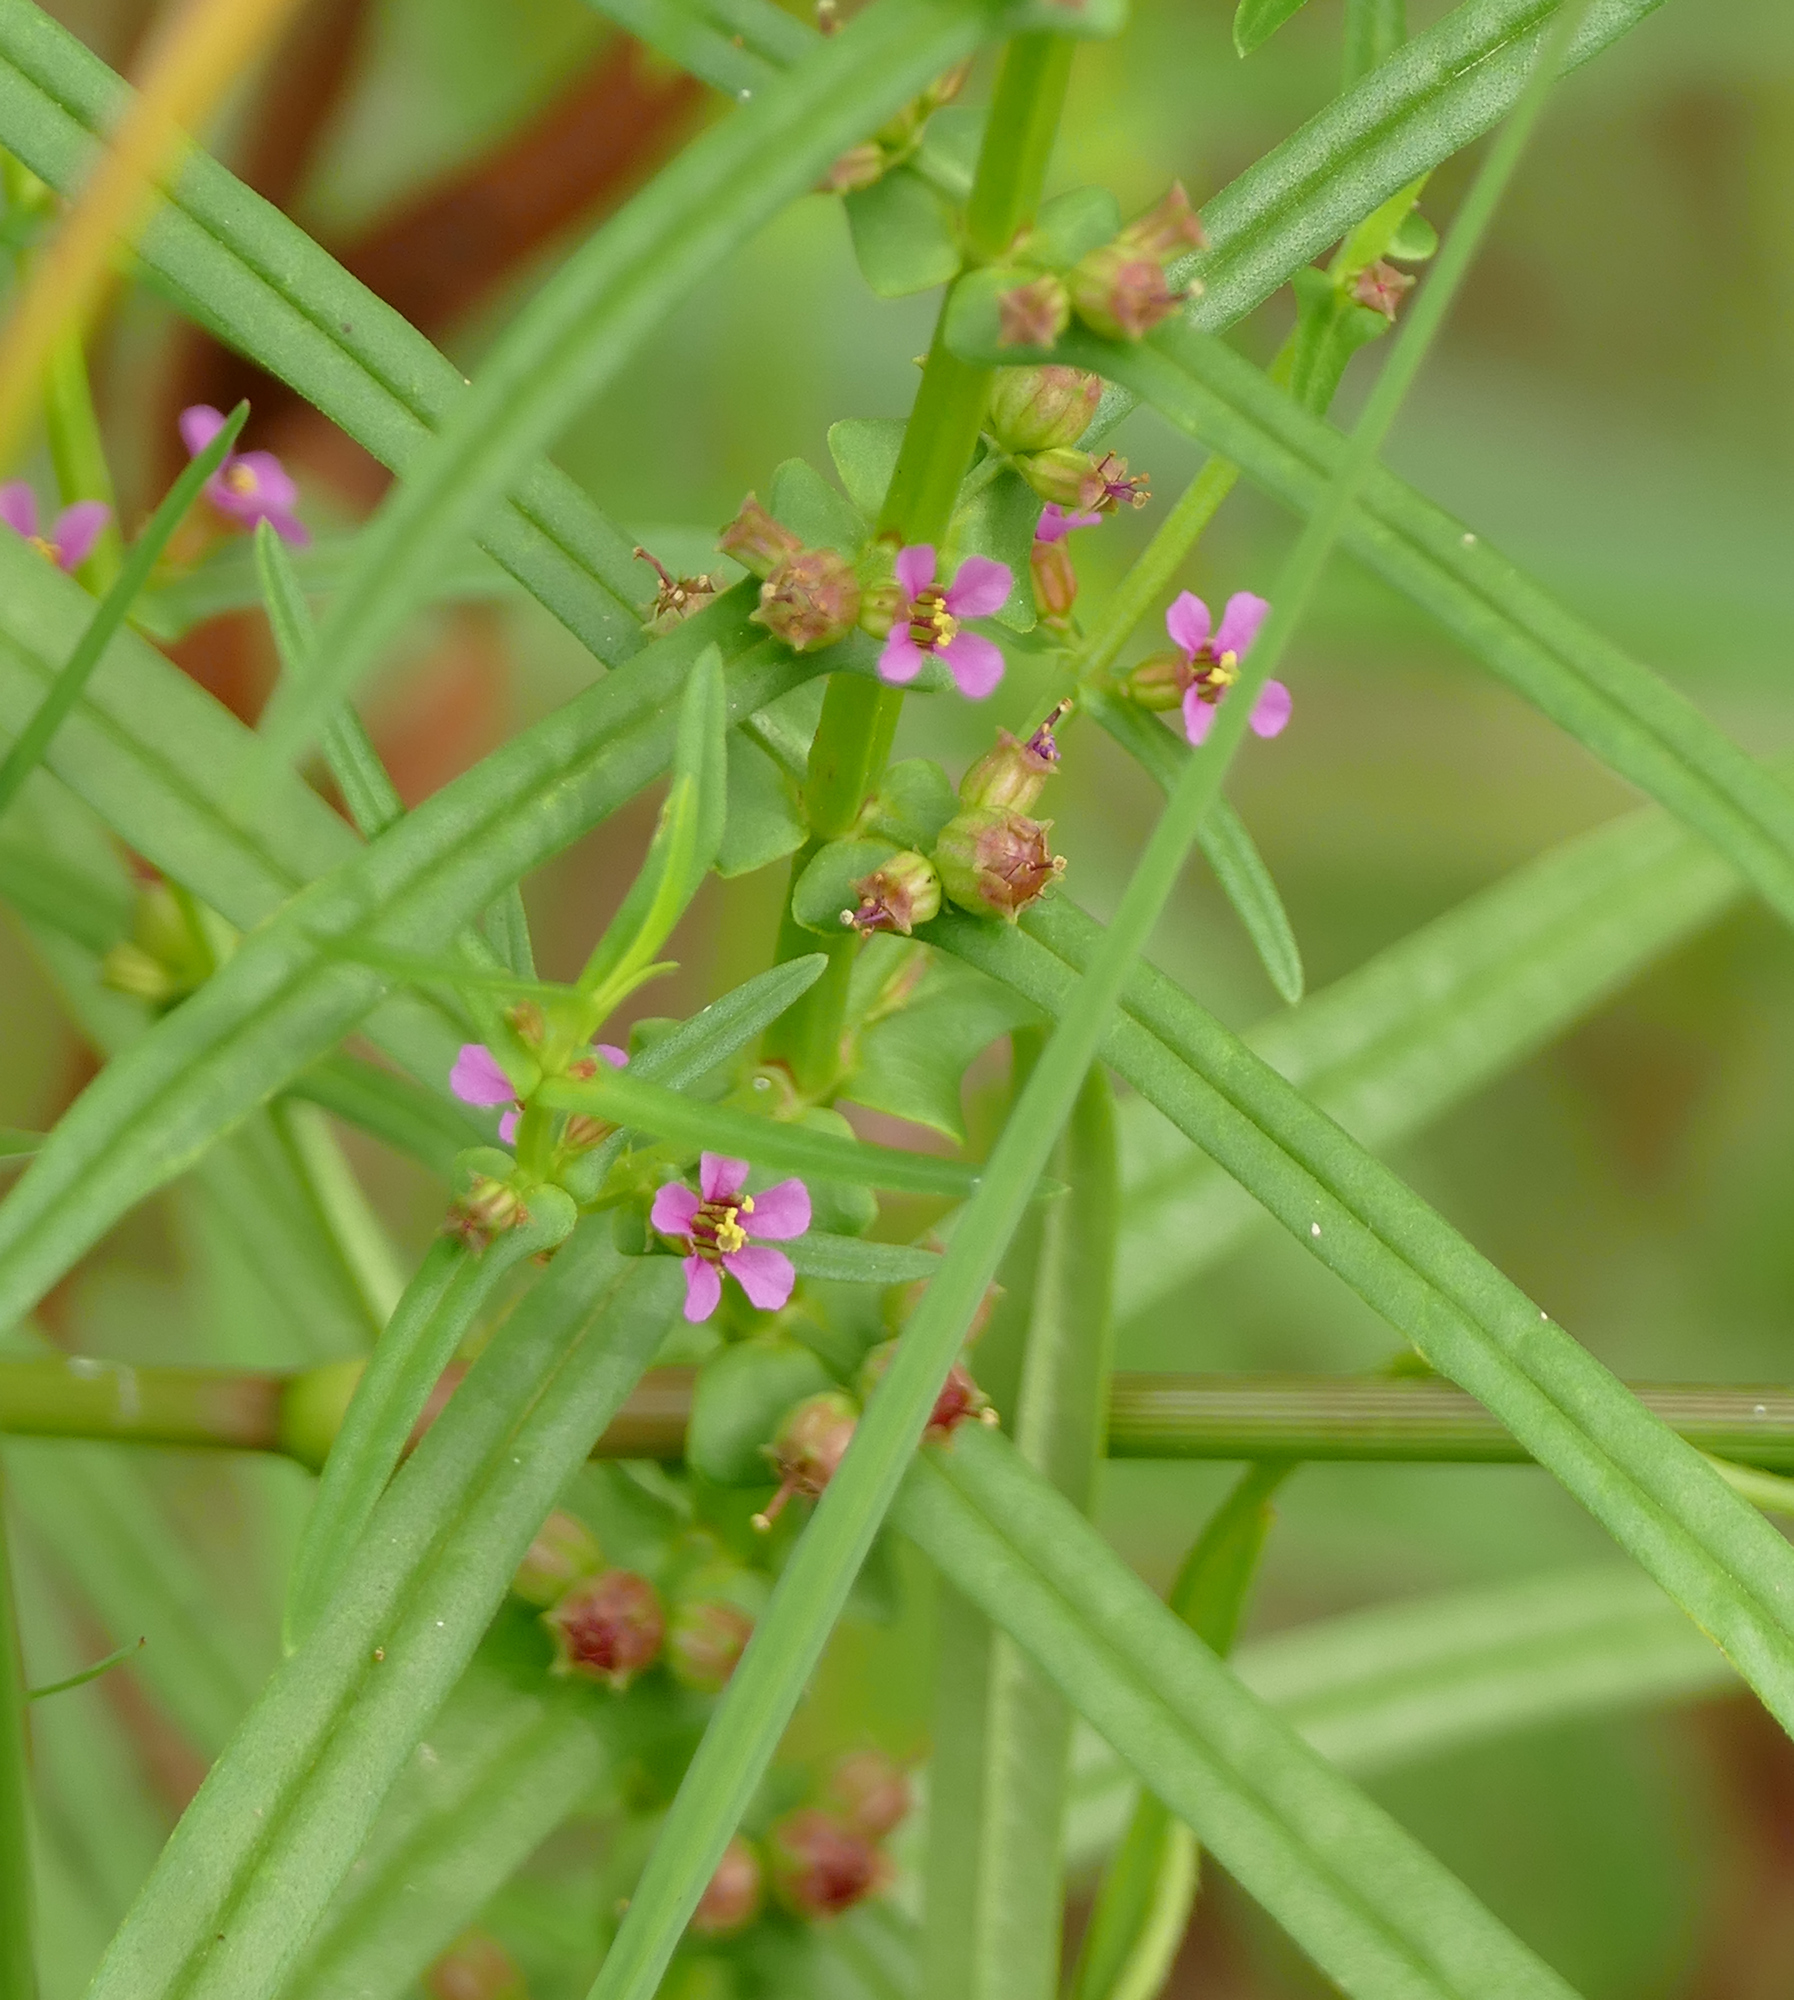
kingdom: Plantae
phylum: Tracheophyta
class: Magnoliopsida
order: Myrtales
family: Lythraceae
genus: Ammannia
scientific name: Ammannia coccinea
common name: Valley redstem
